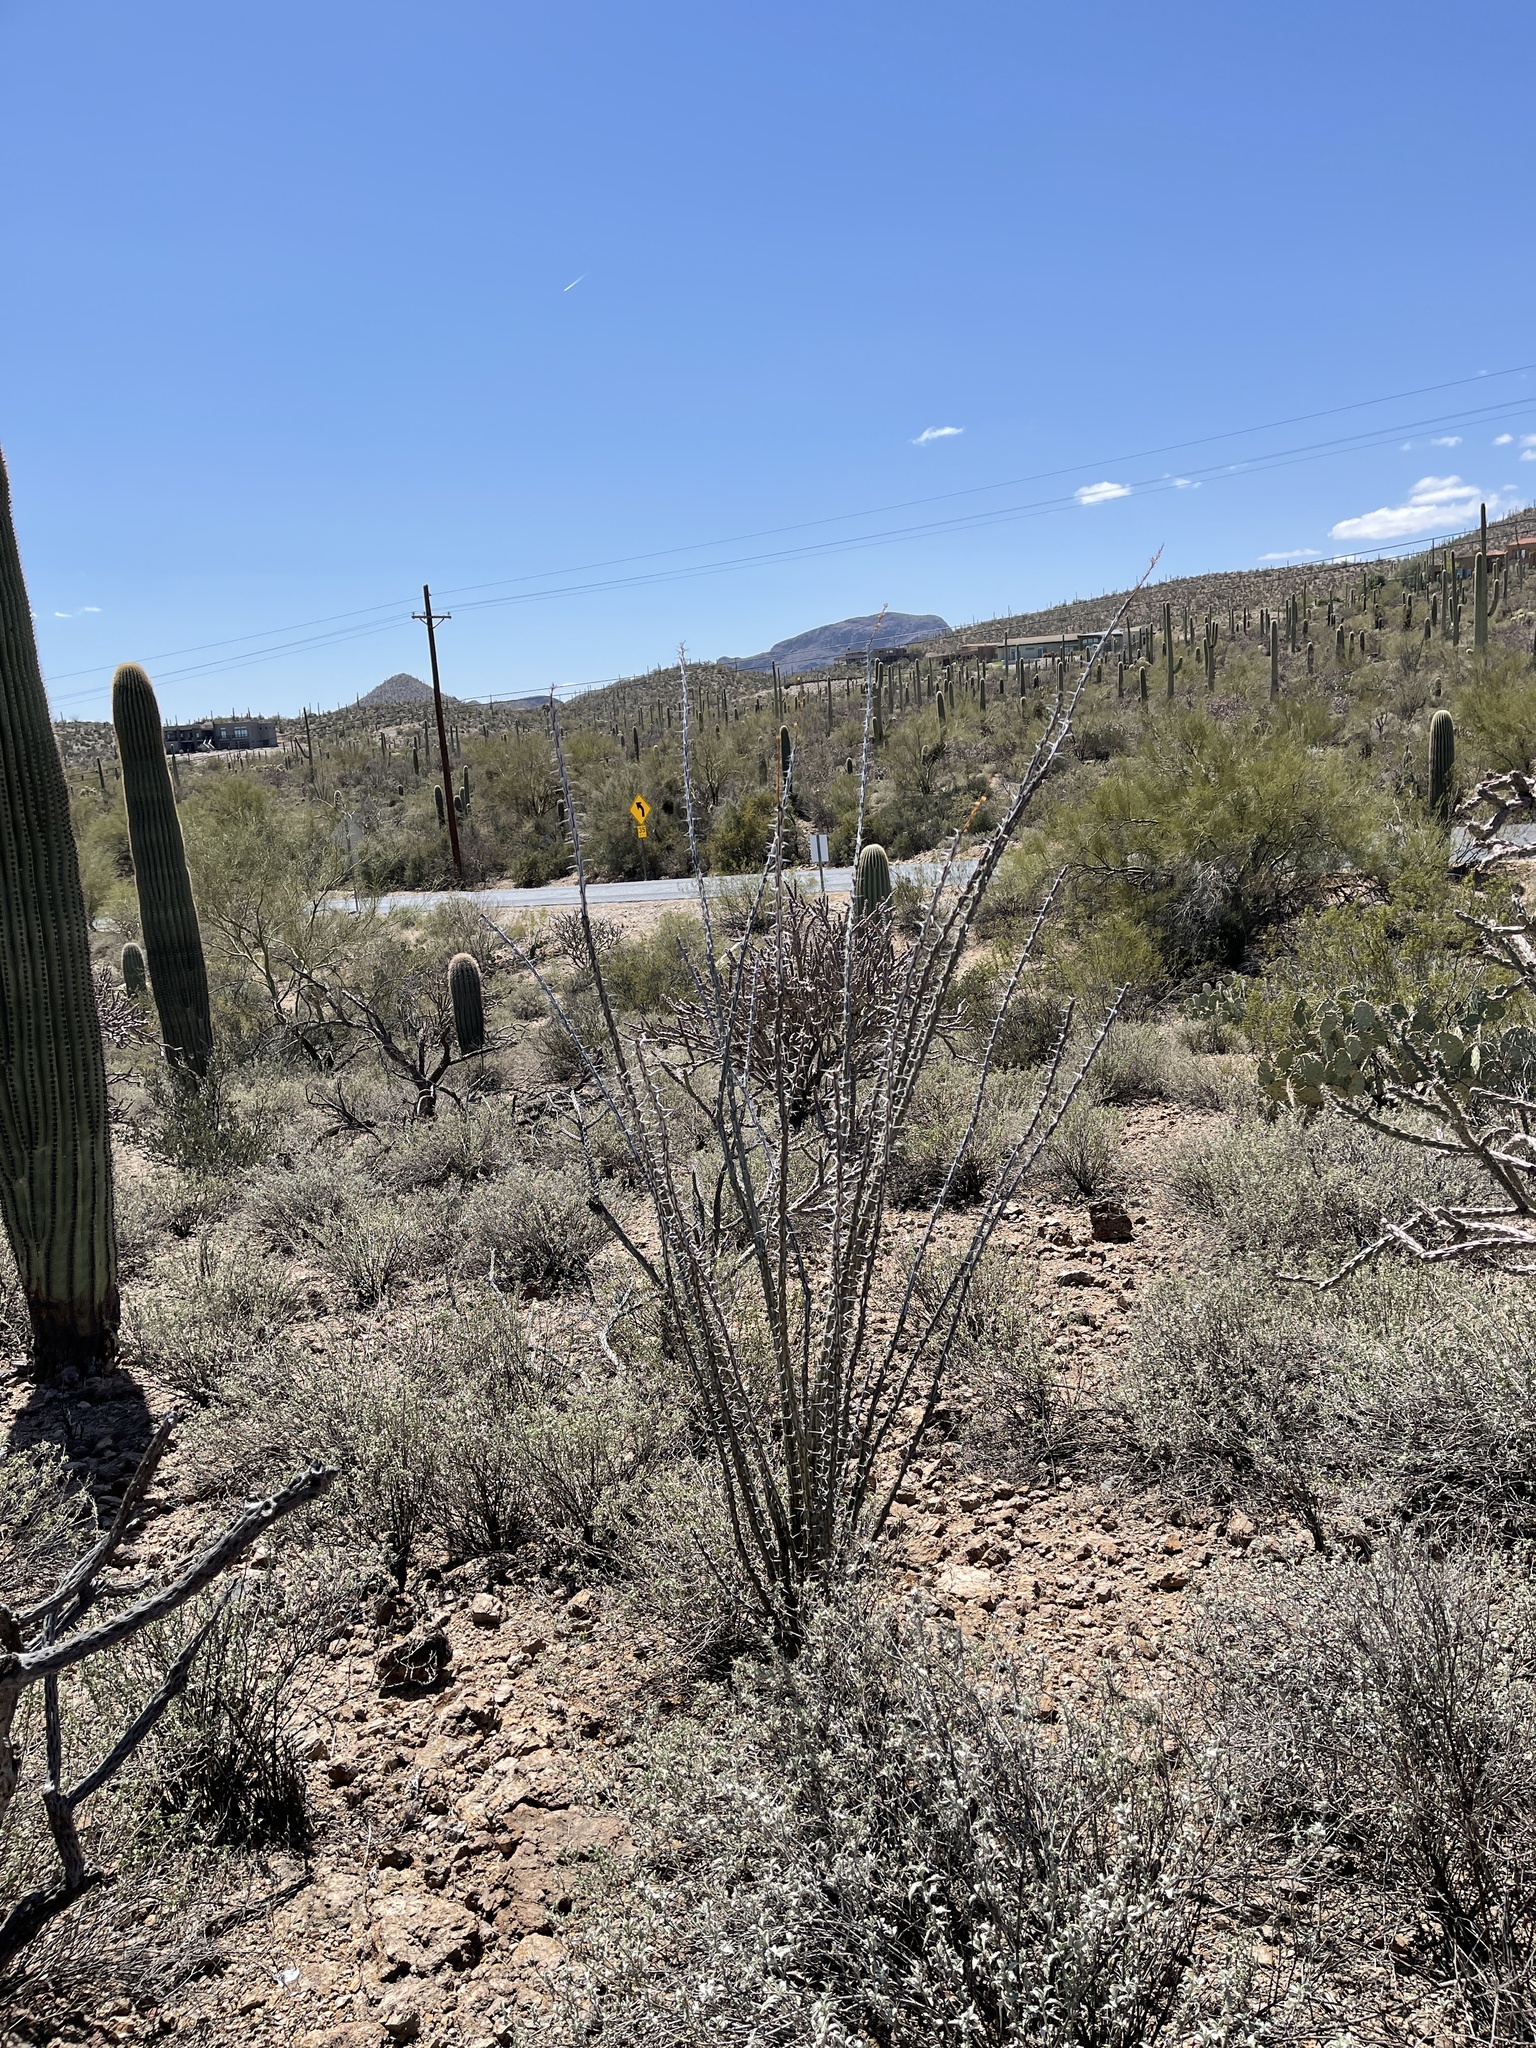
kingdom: Plantae
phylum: Tracheophyta
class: Magnoliopsida
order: Ericales
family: Fouquieriaceae
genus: Fouquieria
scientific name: Fouquieria splendens
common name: Vine-cactus
